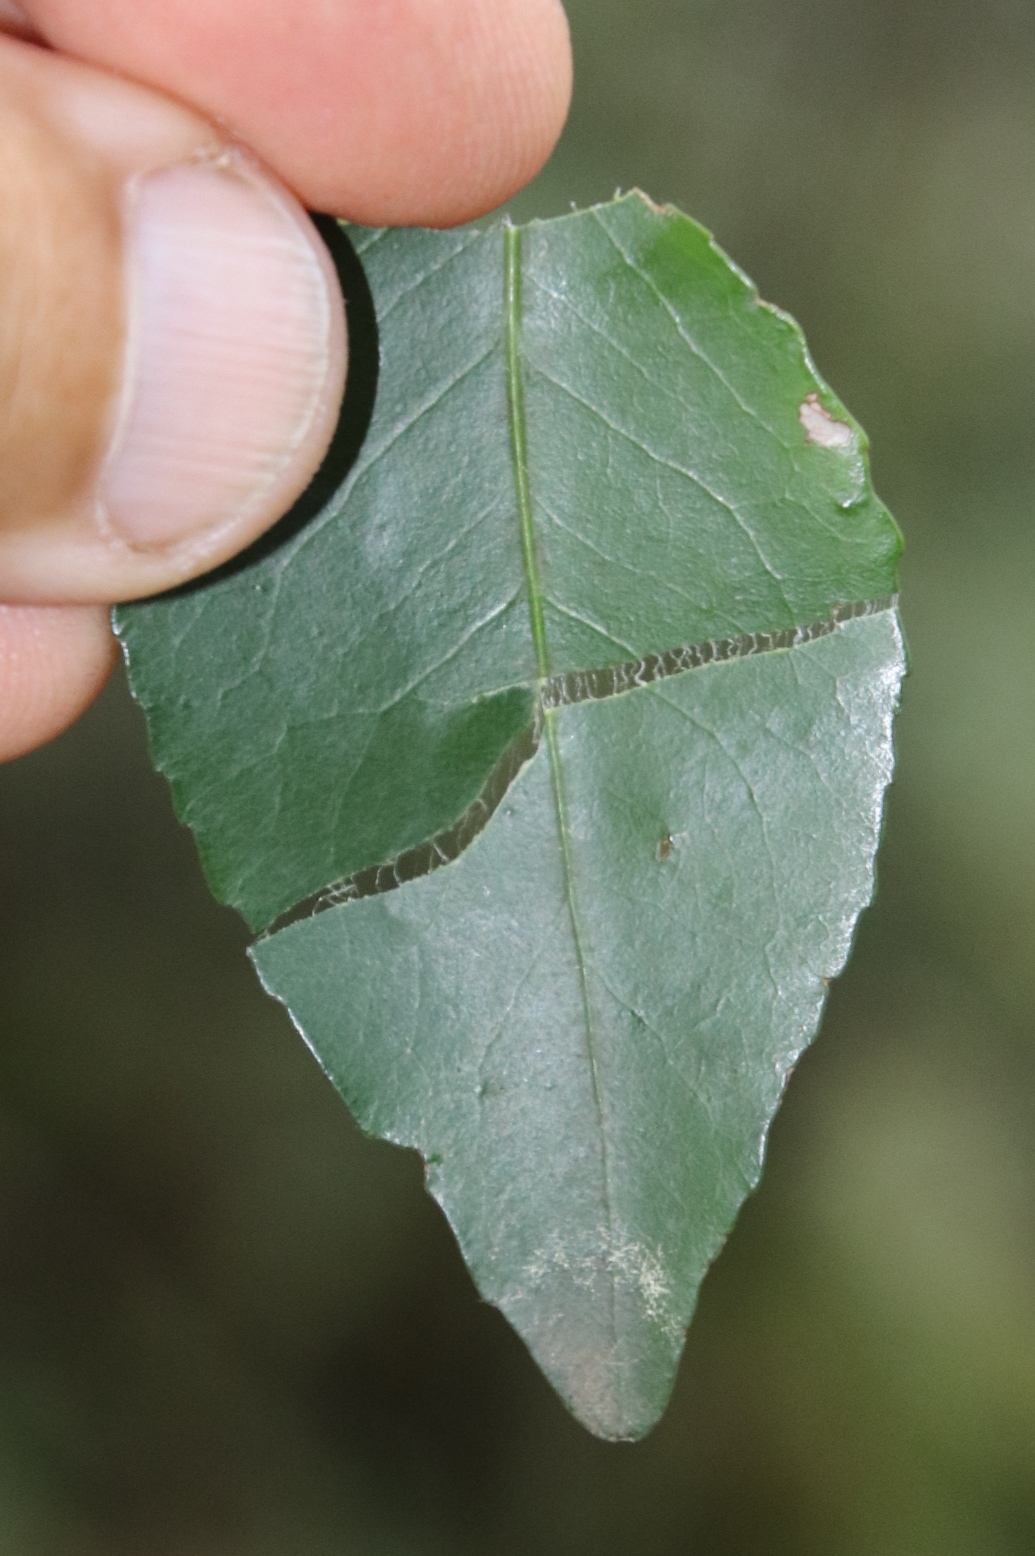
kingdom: Plantae
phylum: Tracheophyta
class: Magnoliopsida
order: Celastrales
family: Celastraceae
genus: Gymnosporia
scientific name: Gymnosporia acuminata
